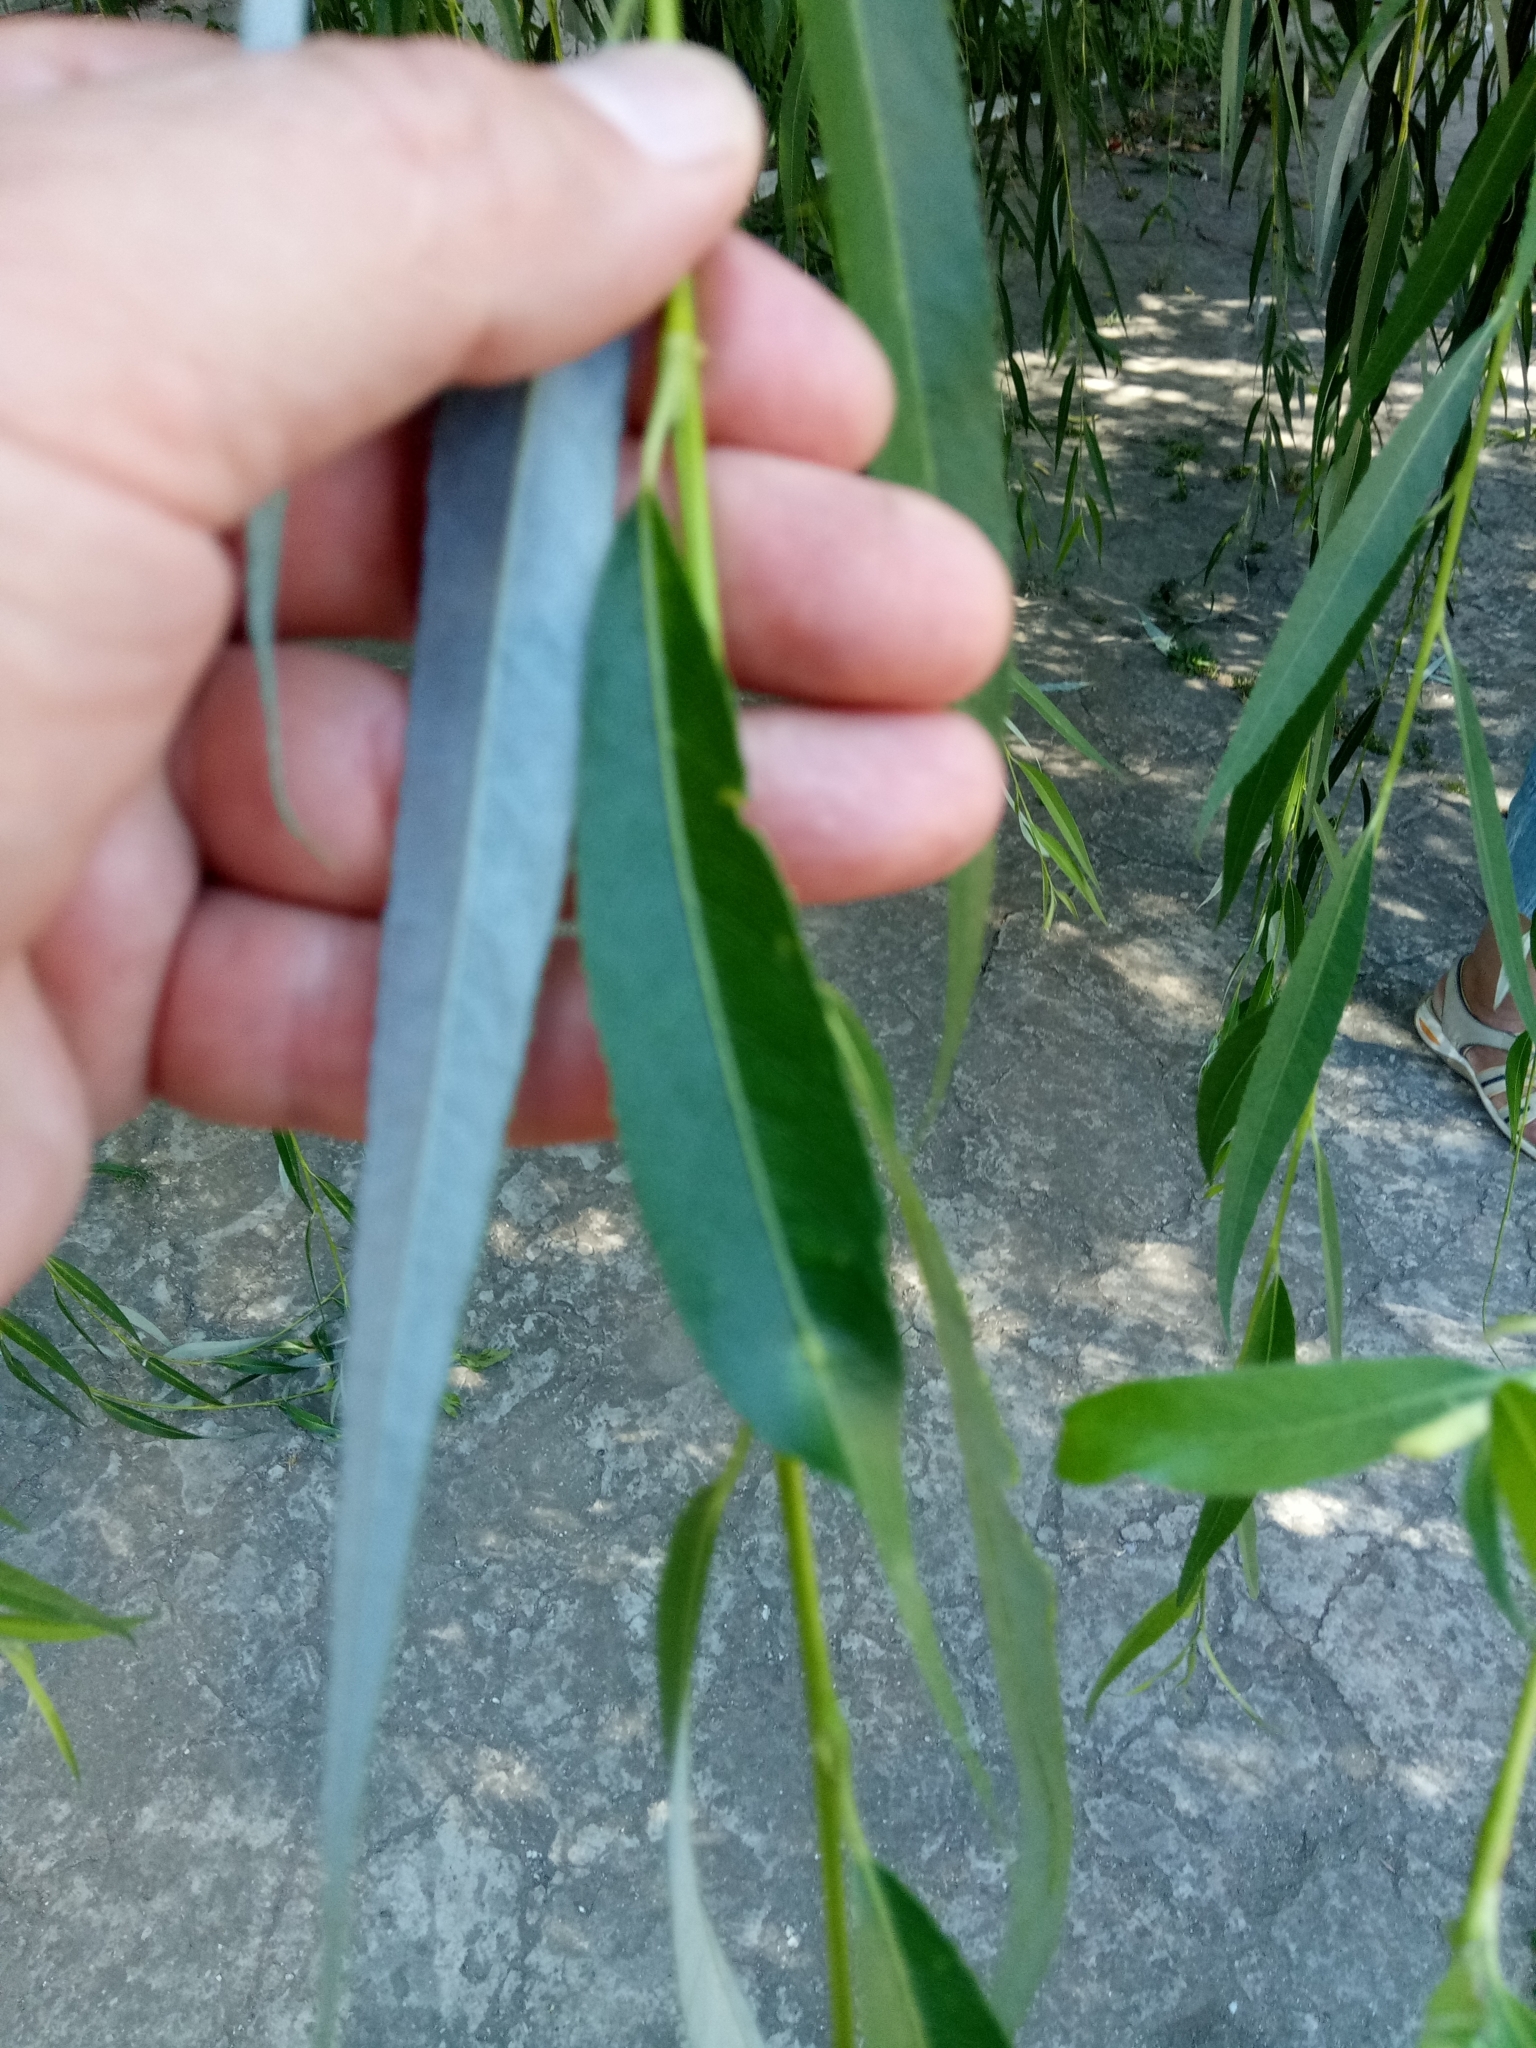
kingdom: Plantae
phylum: Tracheophyta
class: Magnoliopsida
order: Malpighiales
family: Salicaceae
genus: Salix
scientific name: Salix babylonica
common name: Weeping willow
